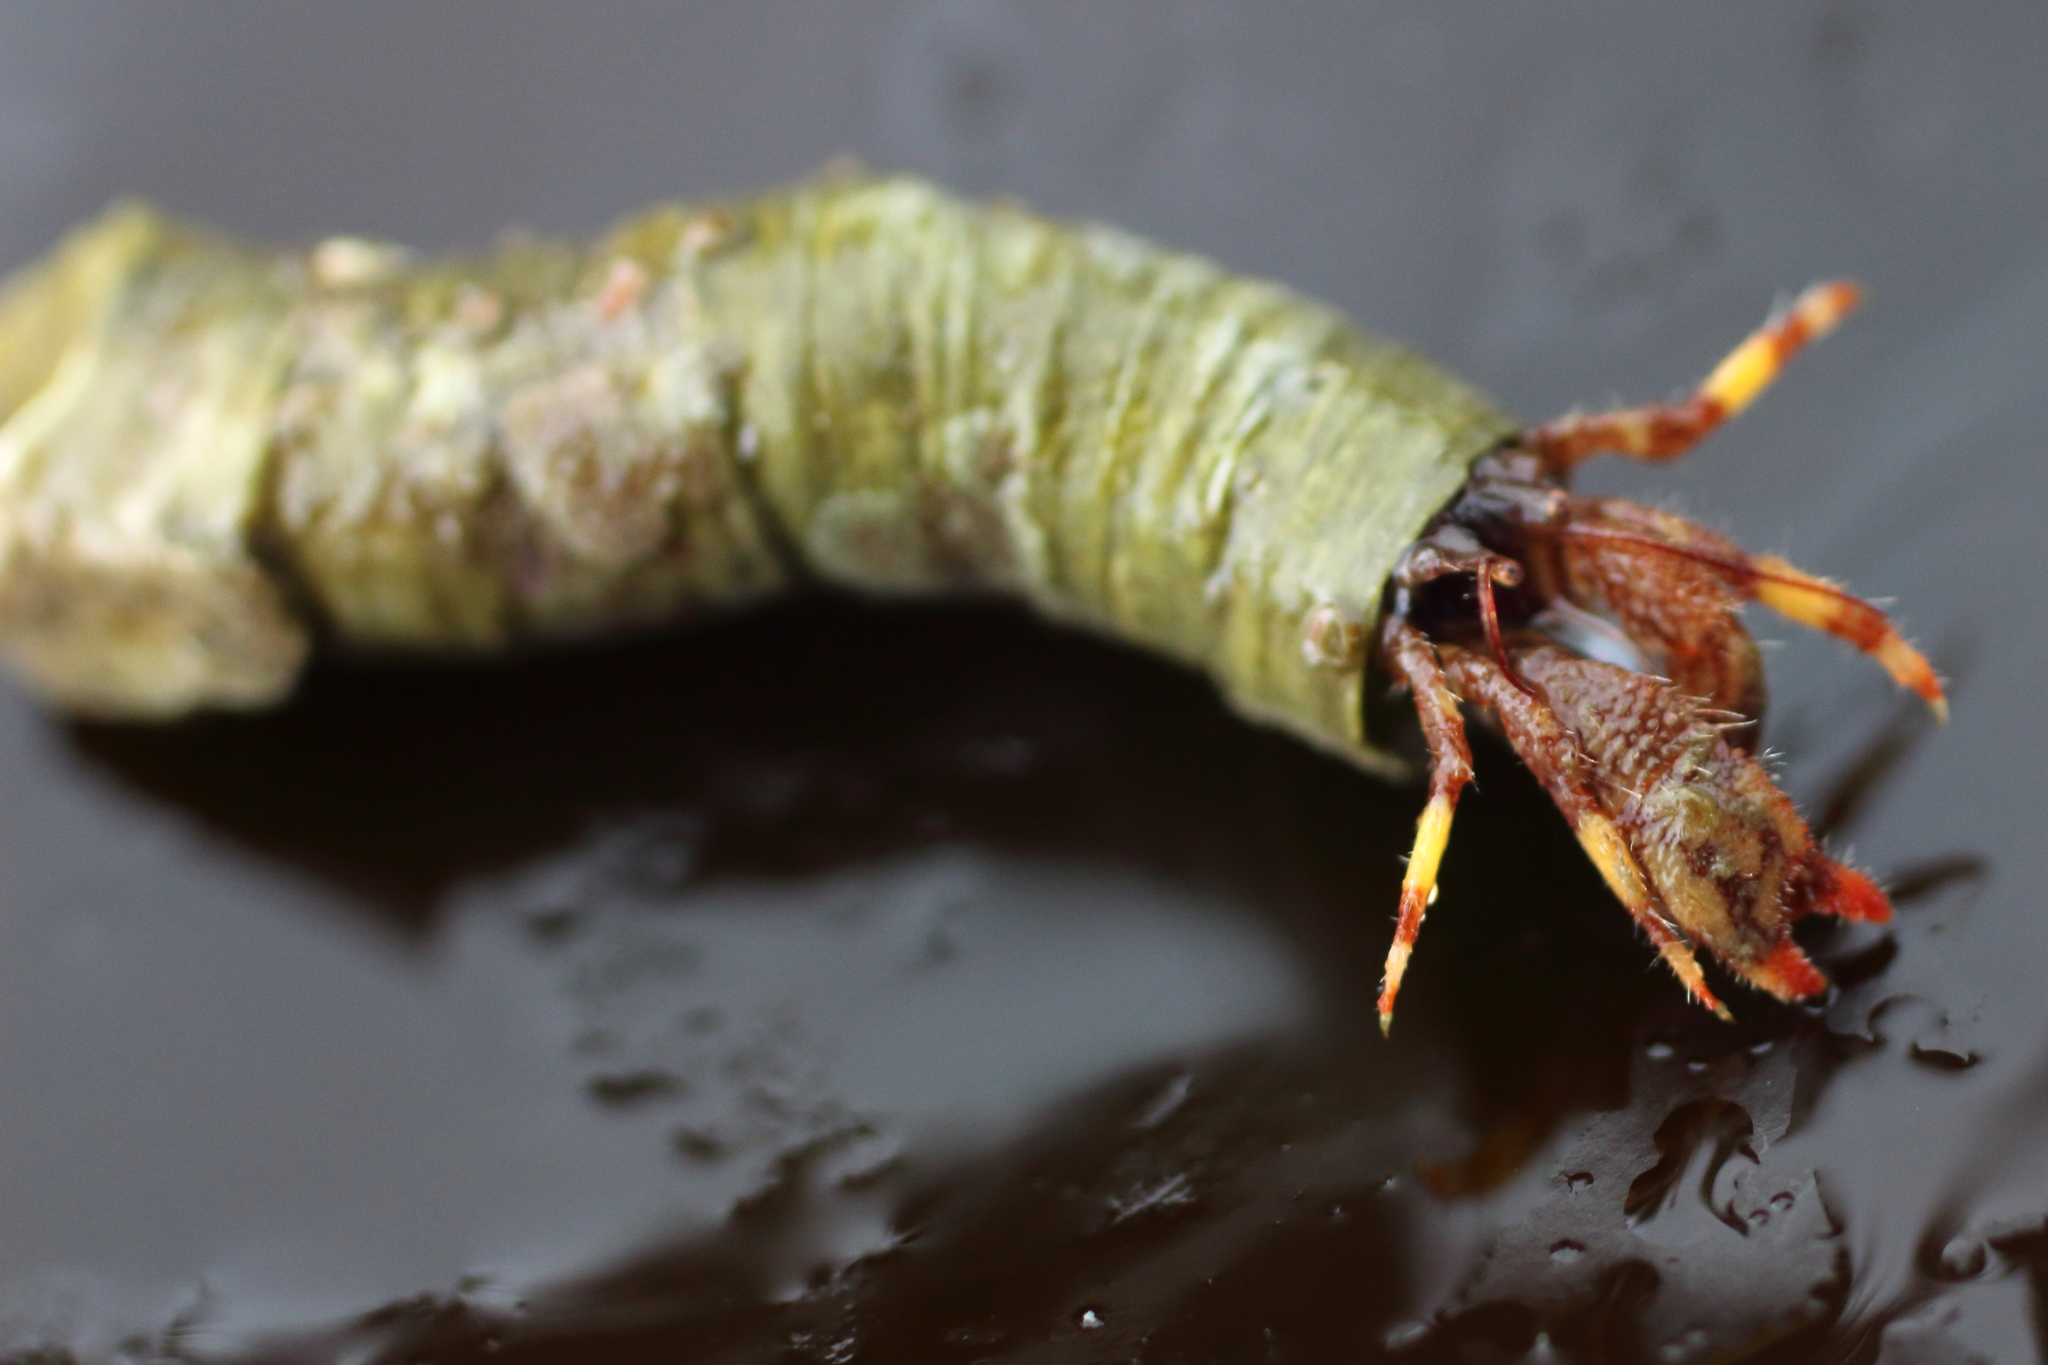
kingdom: Animalia
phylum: Arthropoda
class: Malacostraca
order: Decapoda
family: Paguridae
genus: Discorsopagurus
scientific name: Discorsopagurus schmitti
